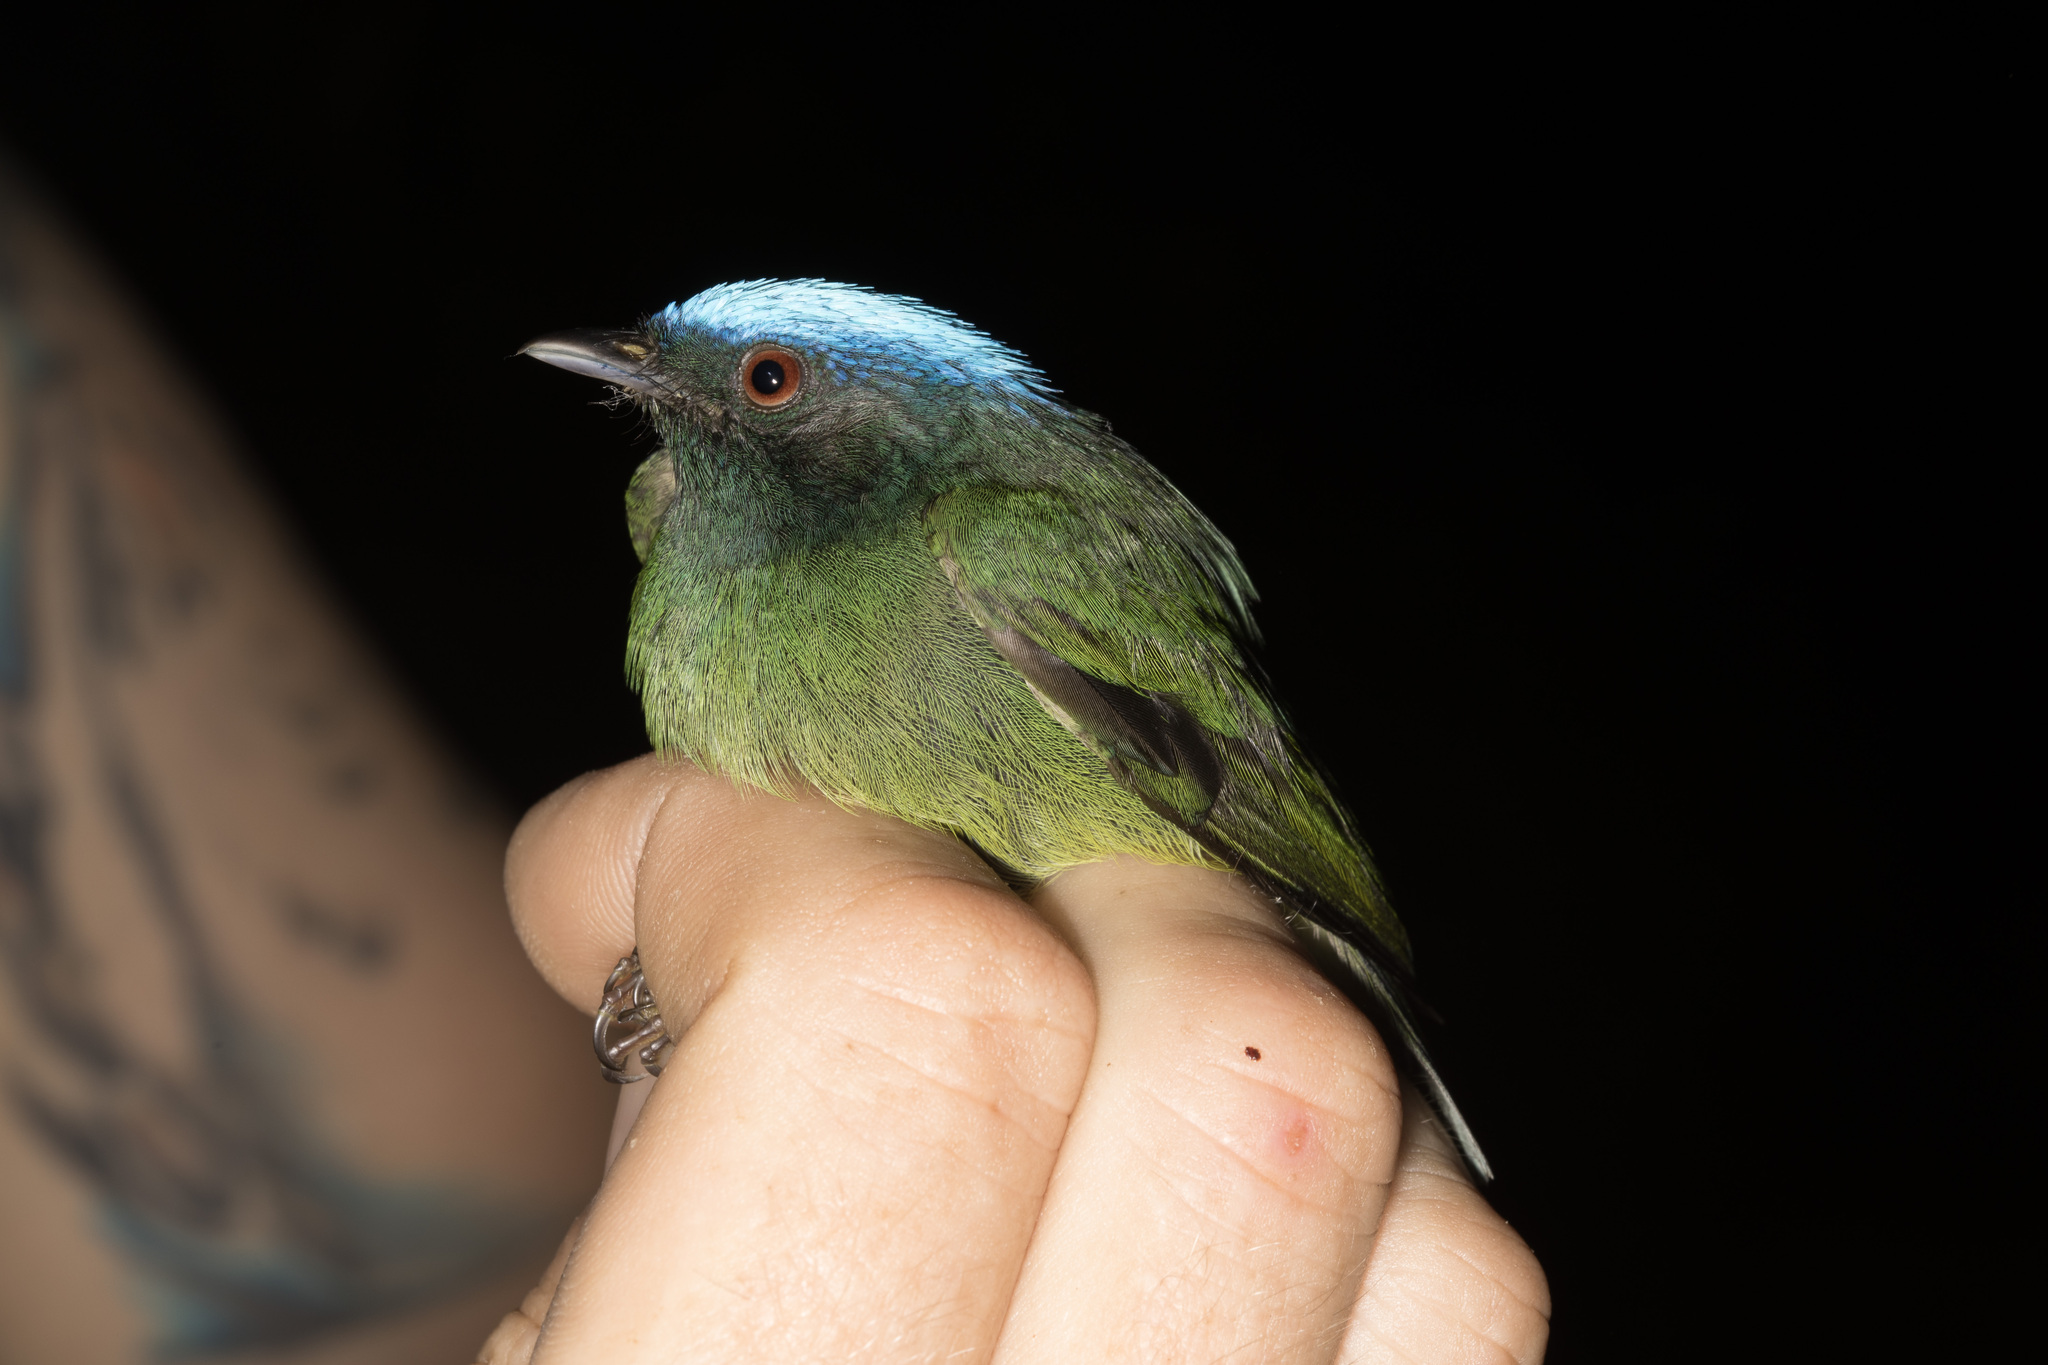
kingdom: Animalia
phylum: Chordata
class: Aves
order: Passeriformes
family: Pipridae
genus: Lepidothrix
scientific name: Lepidothrix coronata
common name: Blue-crowned manakin
